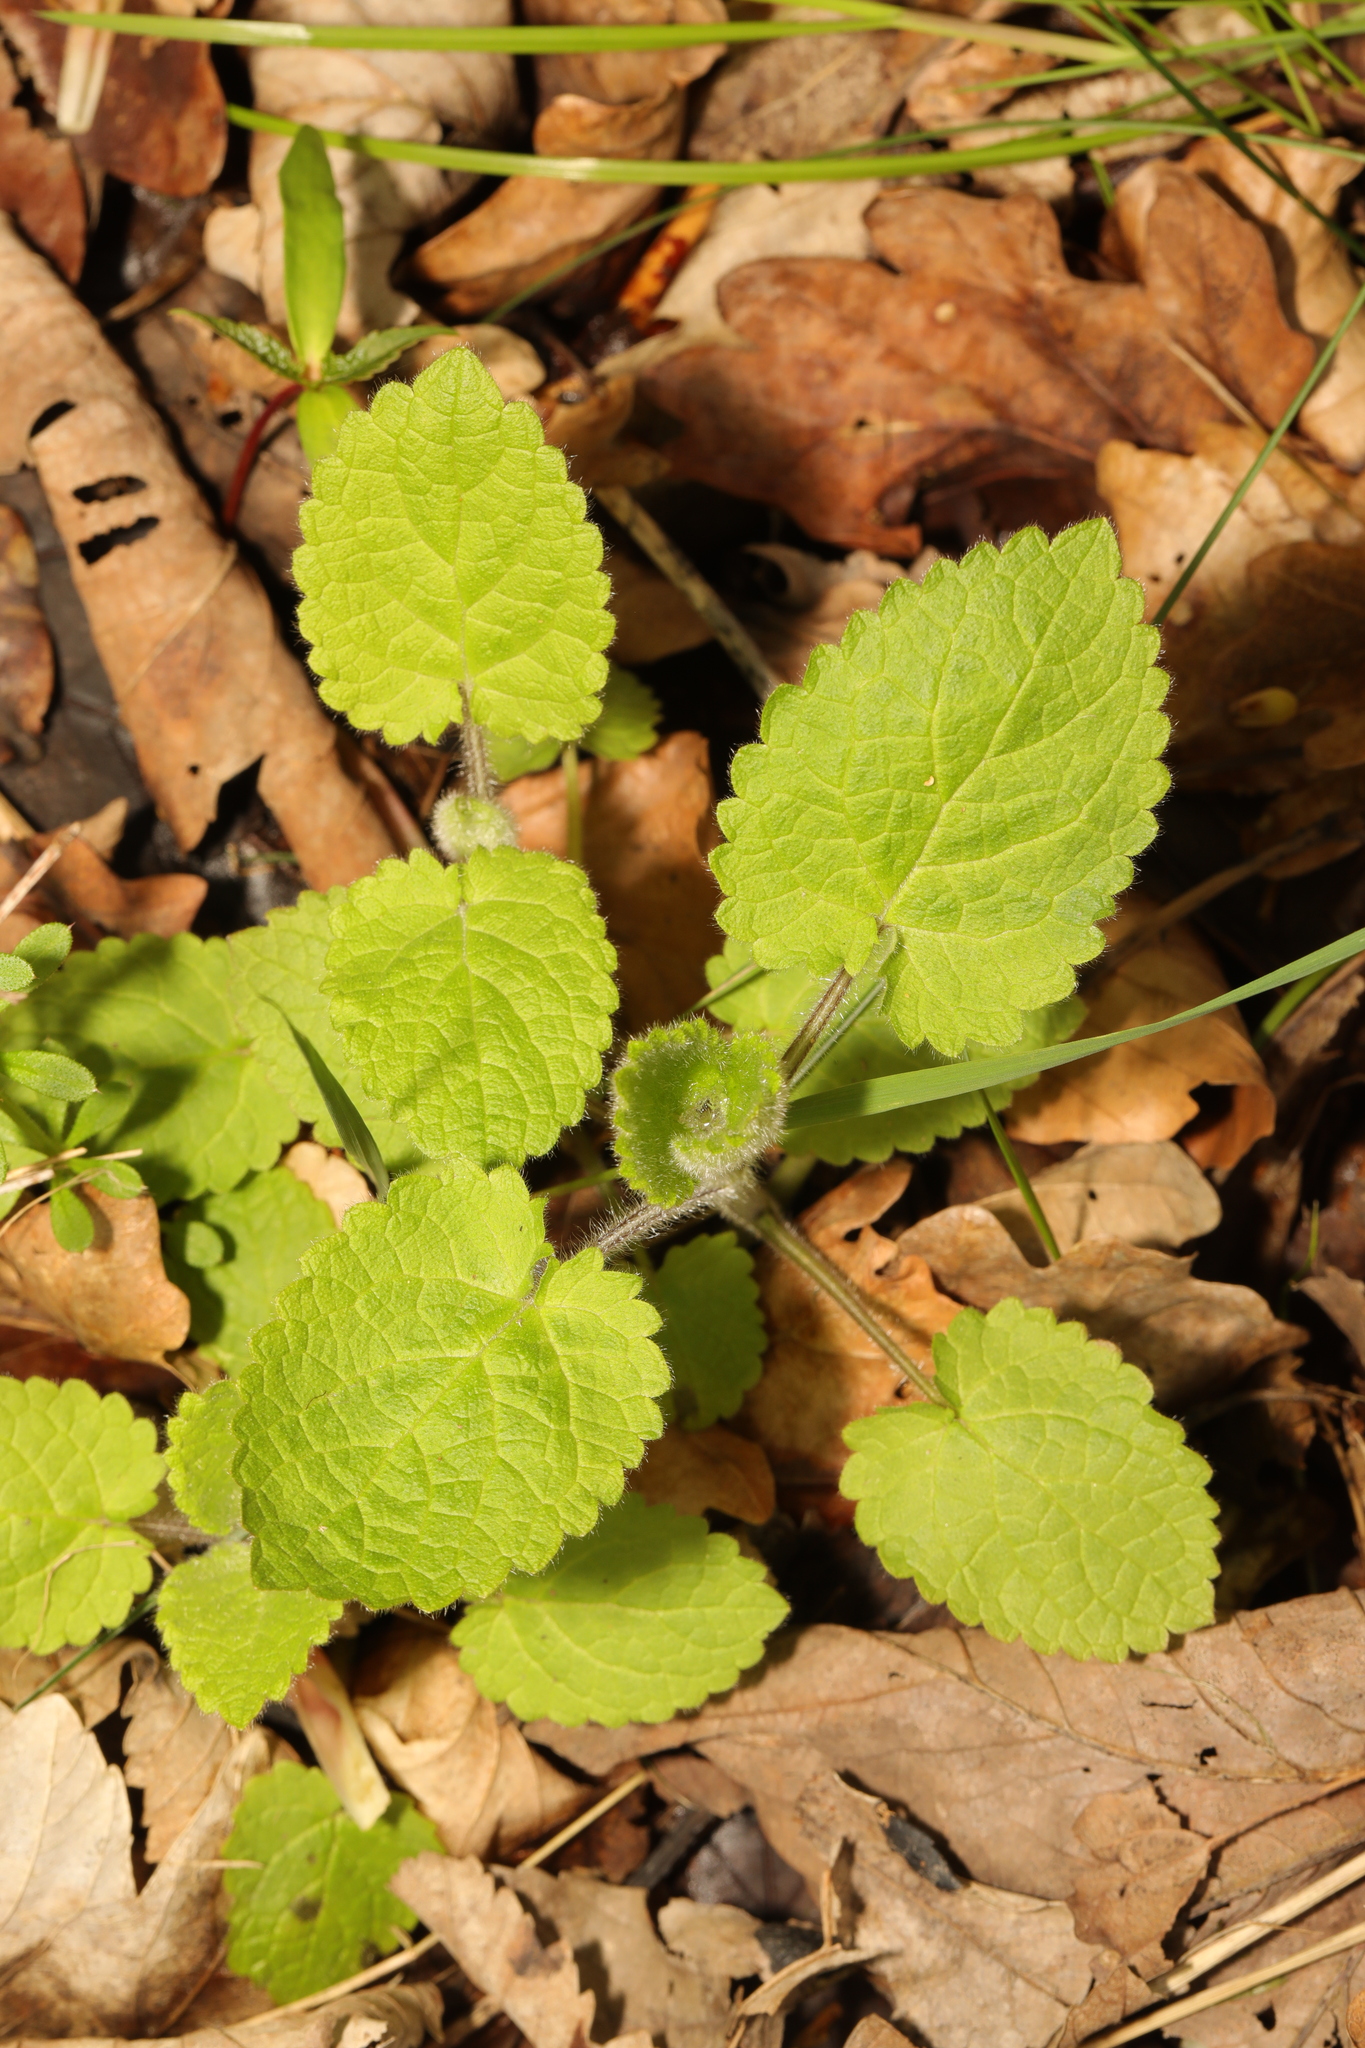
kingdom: Plantae
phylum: Tracheophyta
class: Magnoliopsida
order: Lamiales
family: Lamiaceae
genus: Stachys
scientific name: Stachys sylvatica
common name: Hedge woundwort
